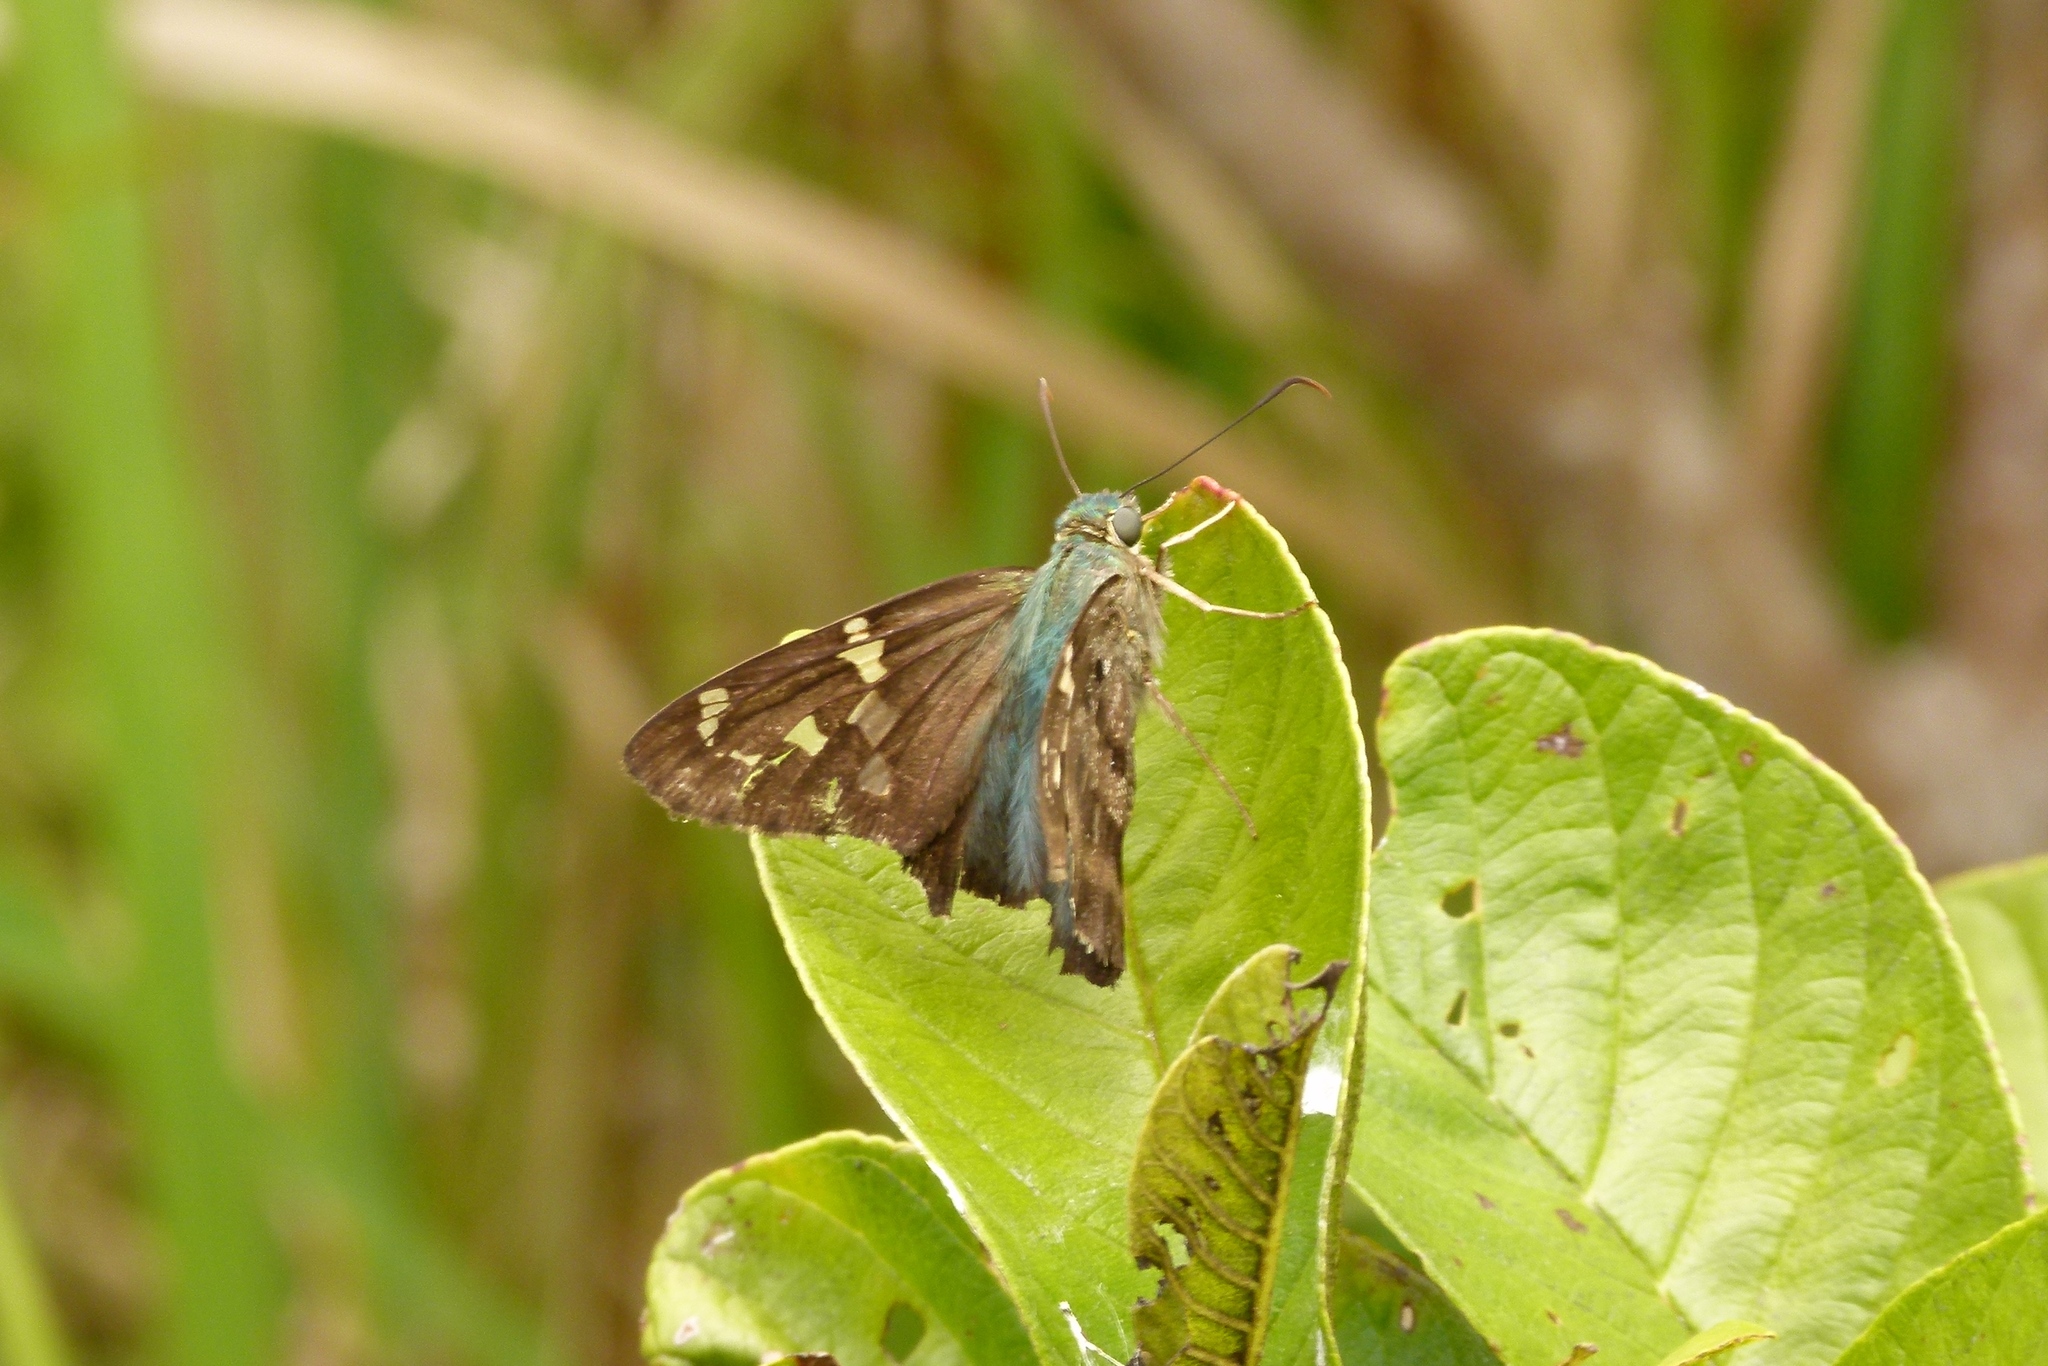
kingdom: Animalia
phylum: Arthropoda
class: Insecta
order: Lepidoptera
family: Hesperiidae
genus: Urbanus
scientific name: Urbanus proteus
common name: Long-tailed skipper
